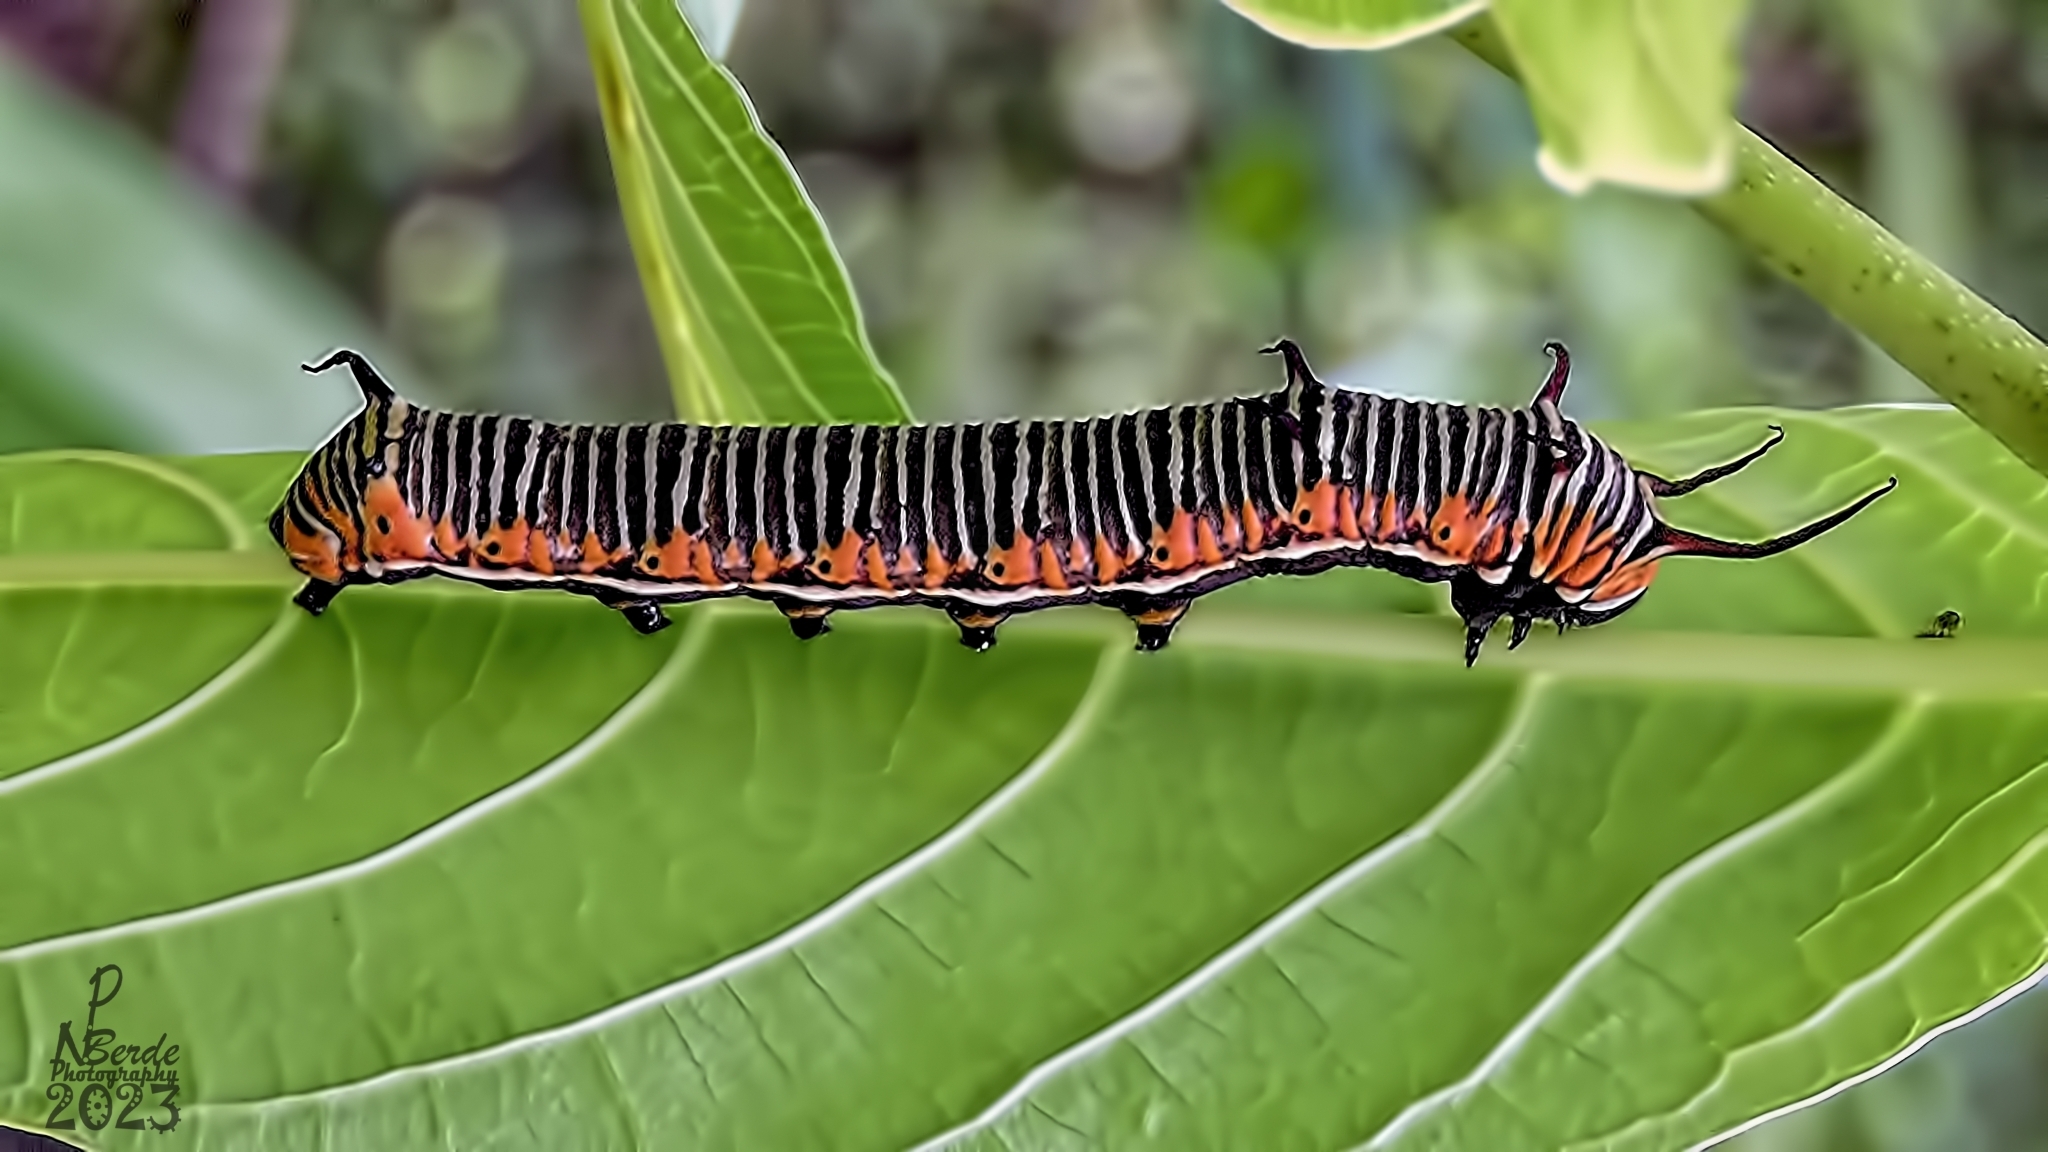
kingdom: Animalia
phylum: Arthropoda
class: Insecta
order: Lepidoptera
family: Nymphalidae
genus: Euploea
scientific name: Euploea core
